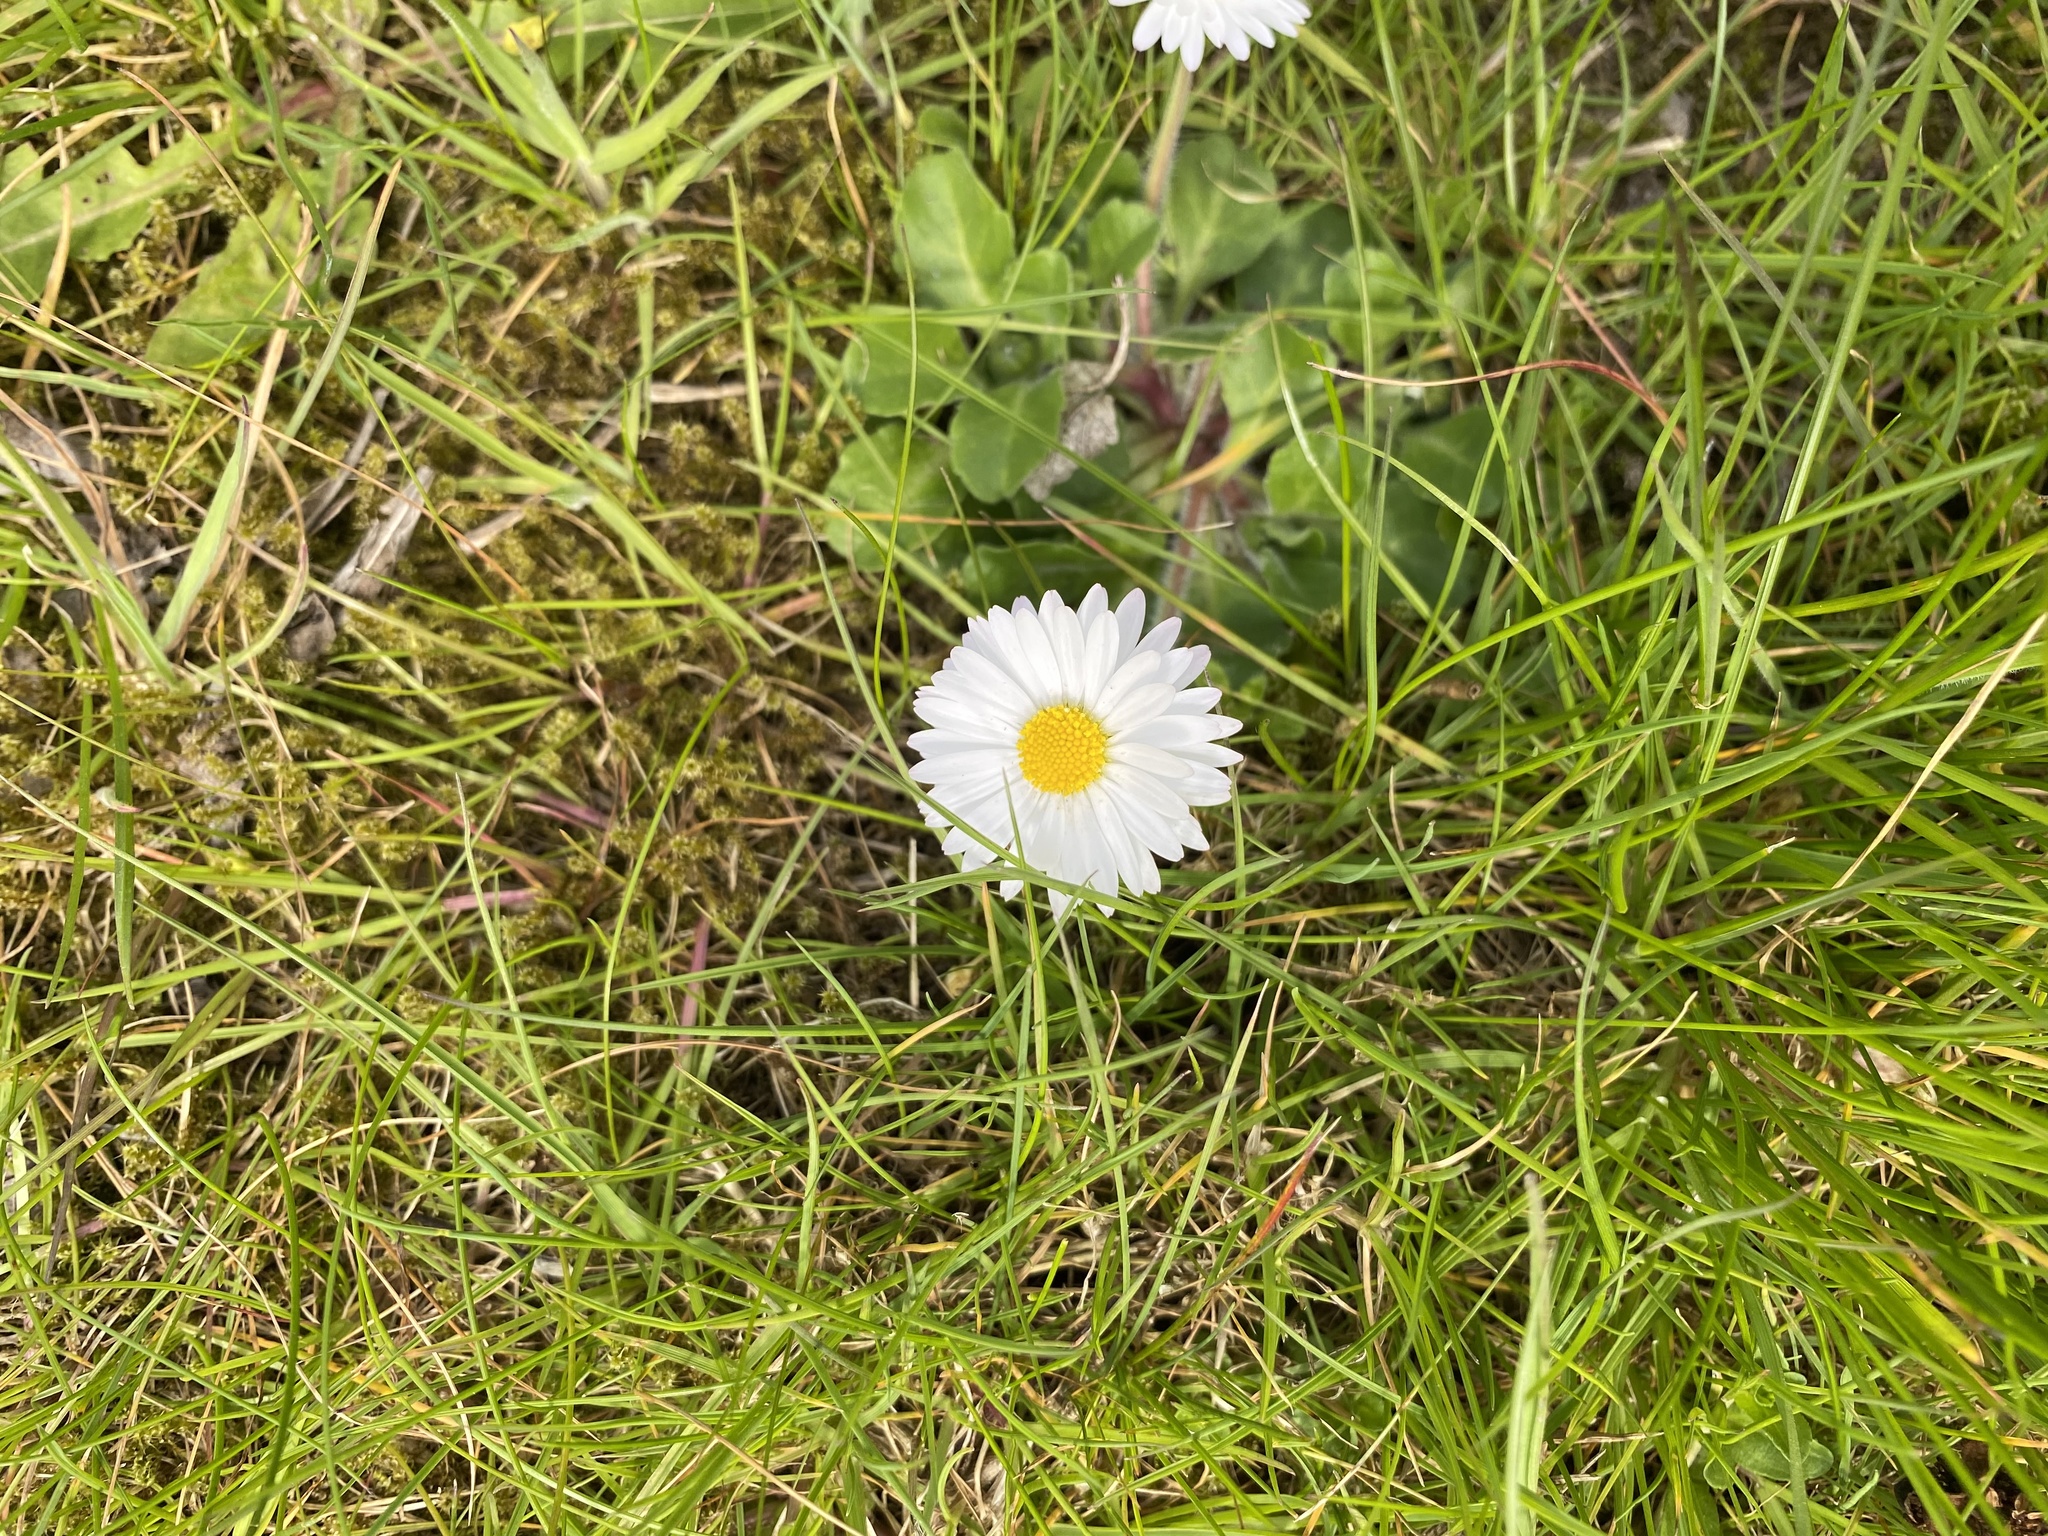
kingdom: Plantae
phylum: Tracheophyta
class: Magnoliopsida
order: Asterales
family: Asteraceae
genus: Bellis
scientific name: Bellis perennis
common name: Lawndaisy
